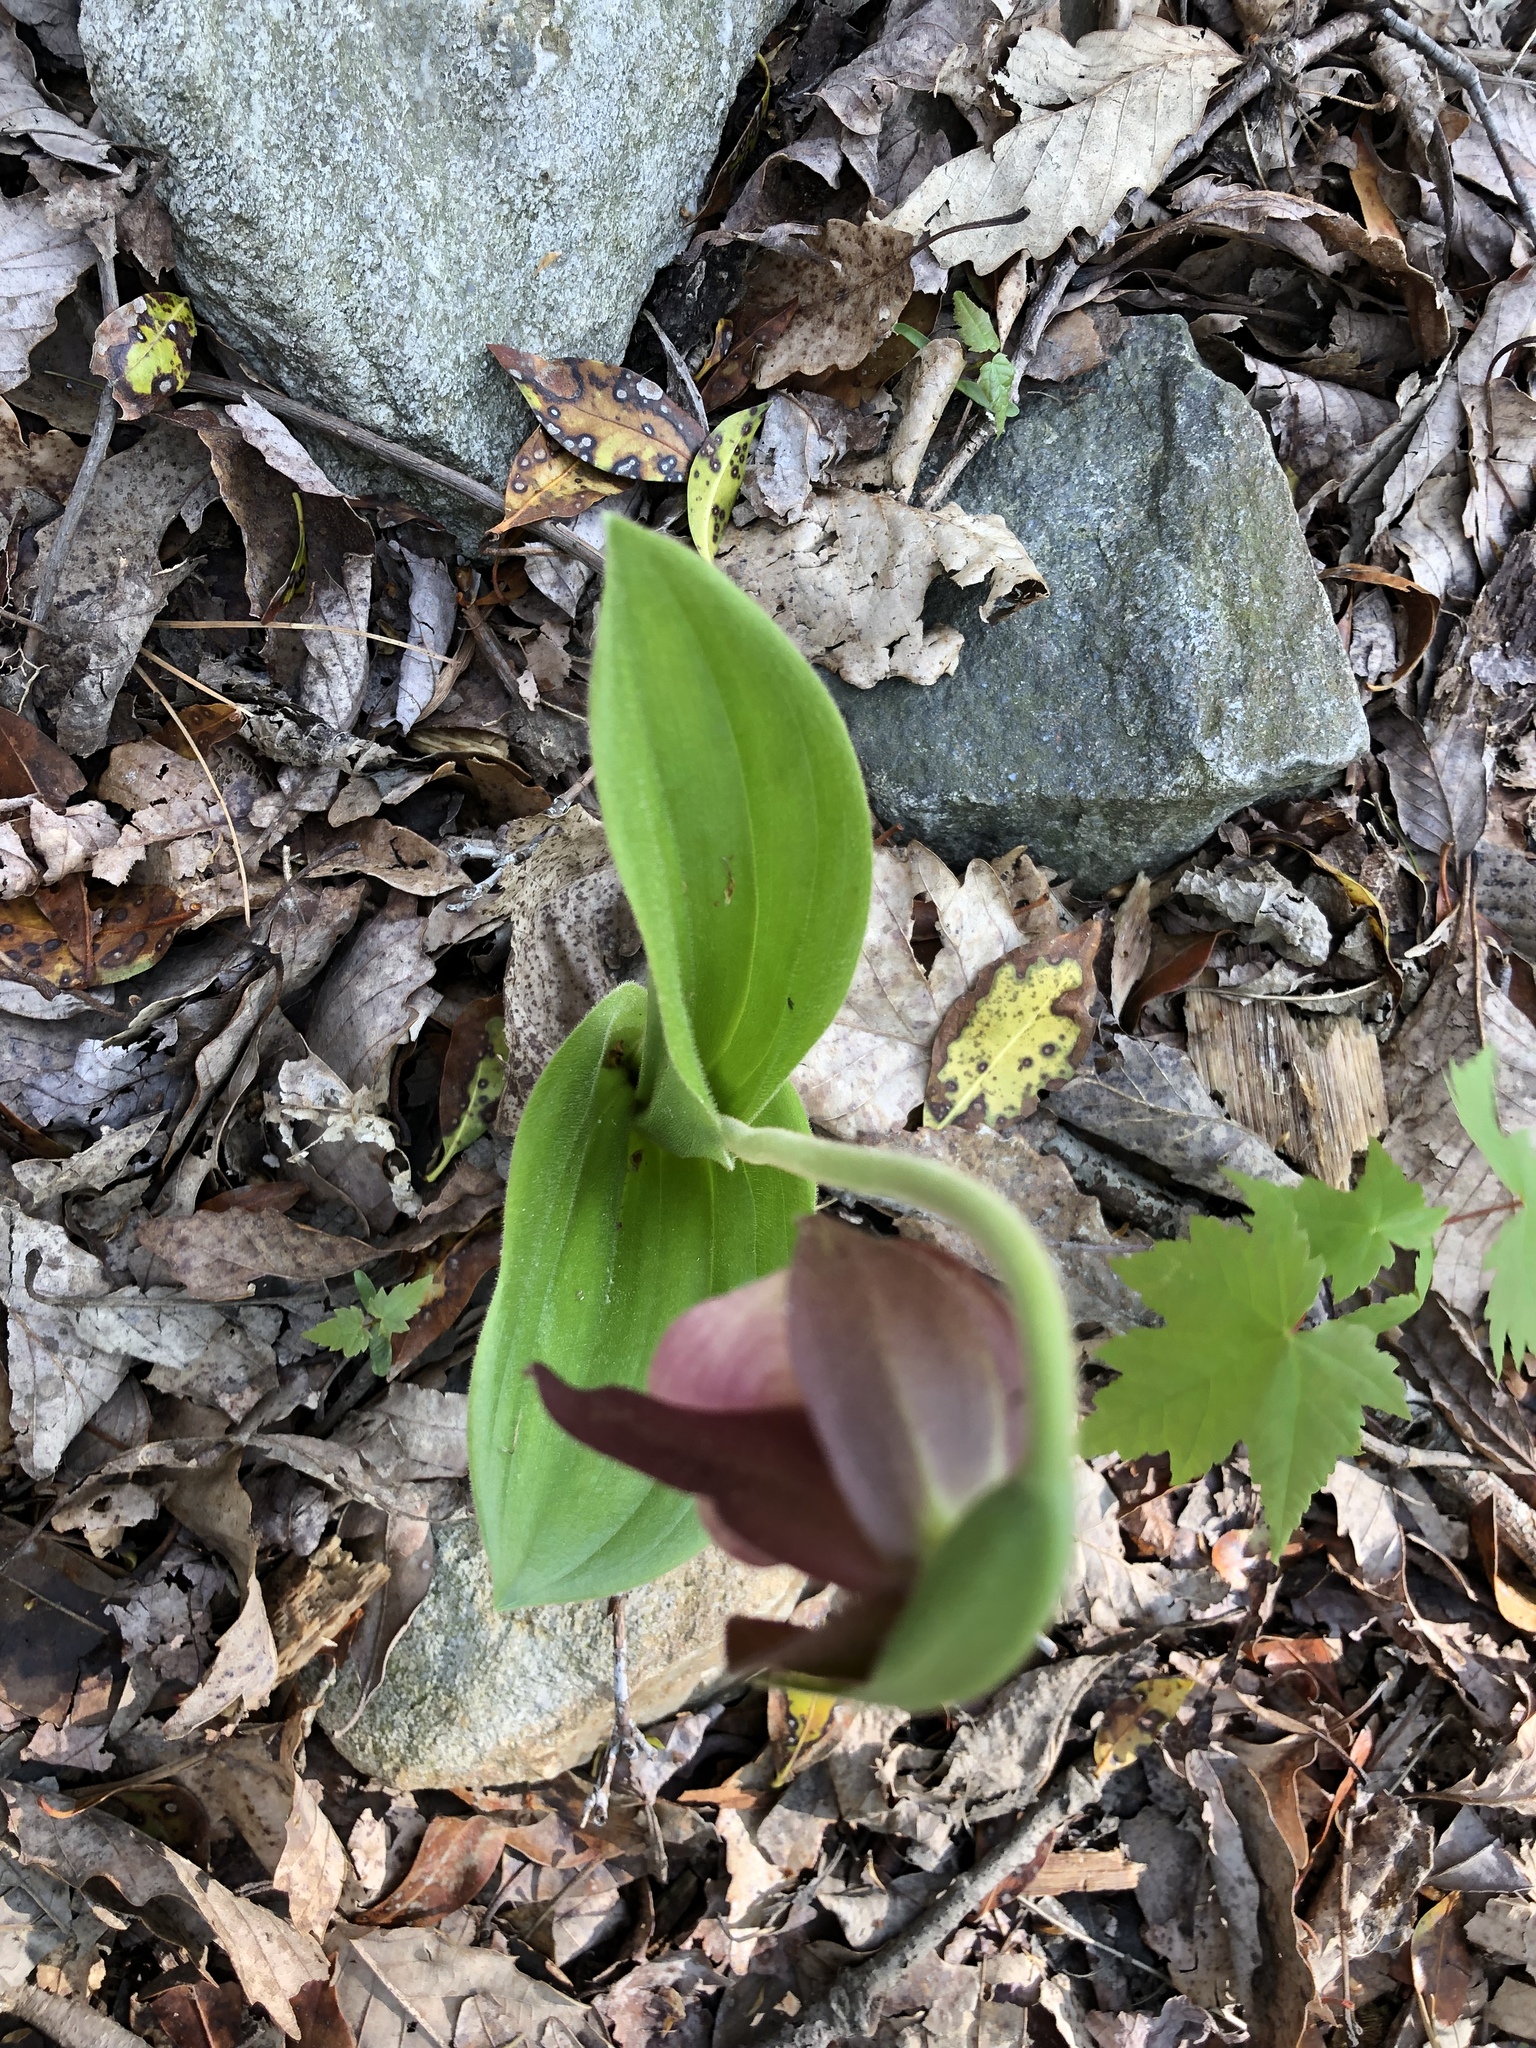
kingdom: Plantae
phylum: Tracheophyta
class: Liliopsida
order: Asparagales
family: Orchidaceae
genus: Cypripedium
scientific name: Cypripedium acaule
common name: Pink lady's-slipper
